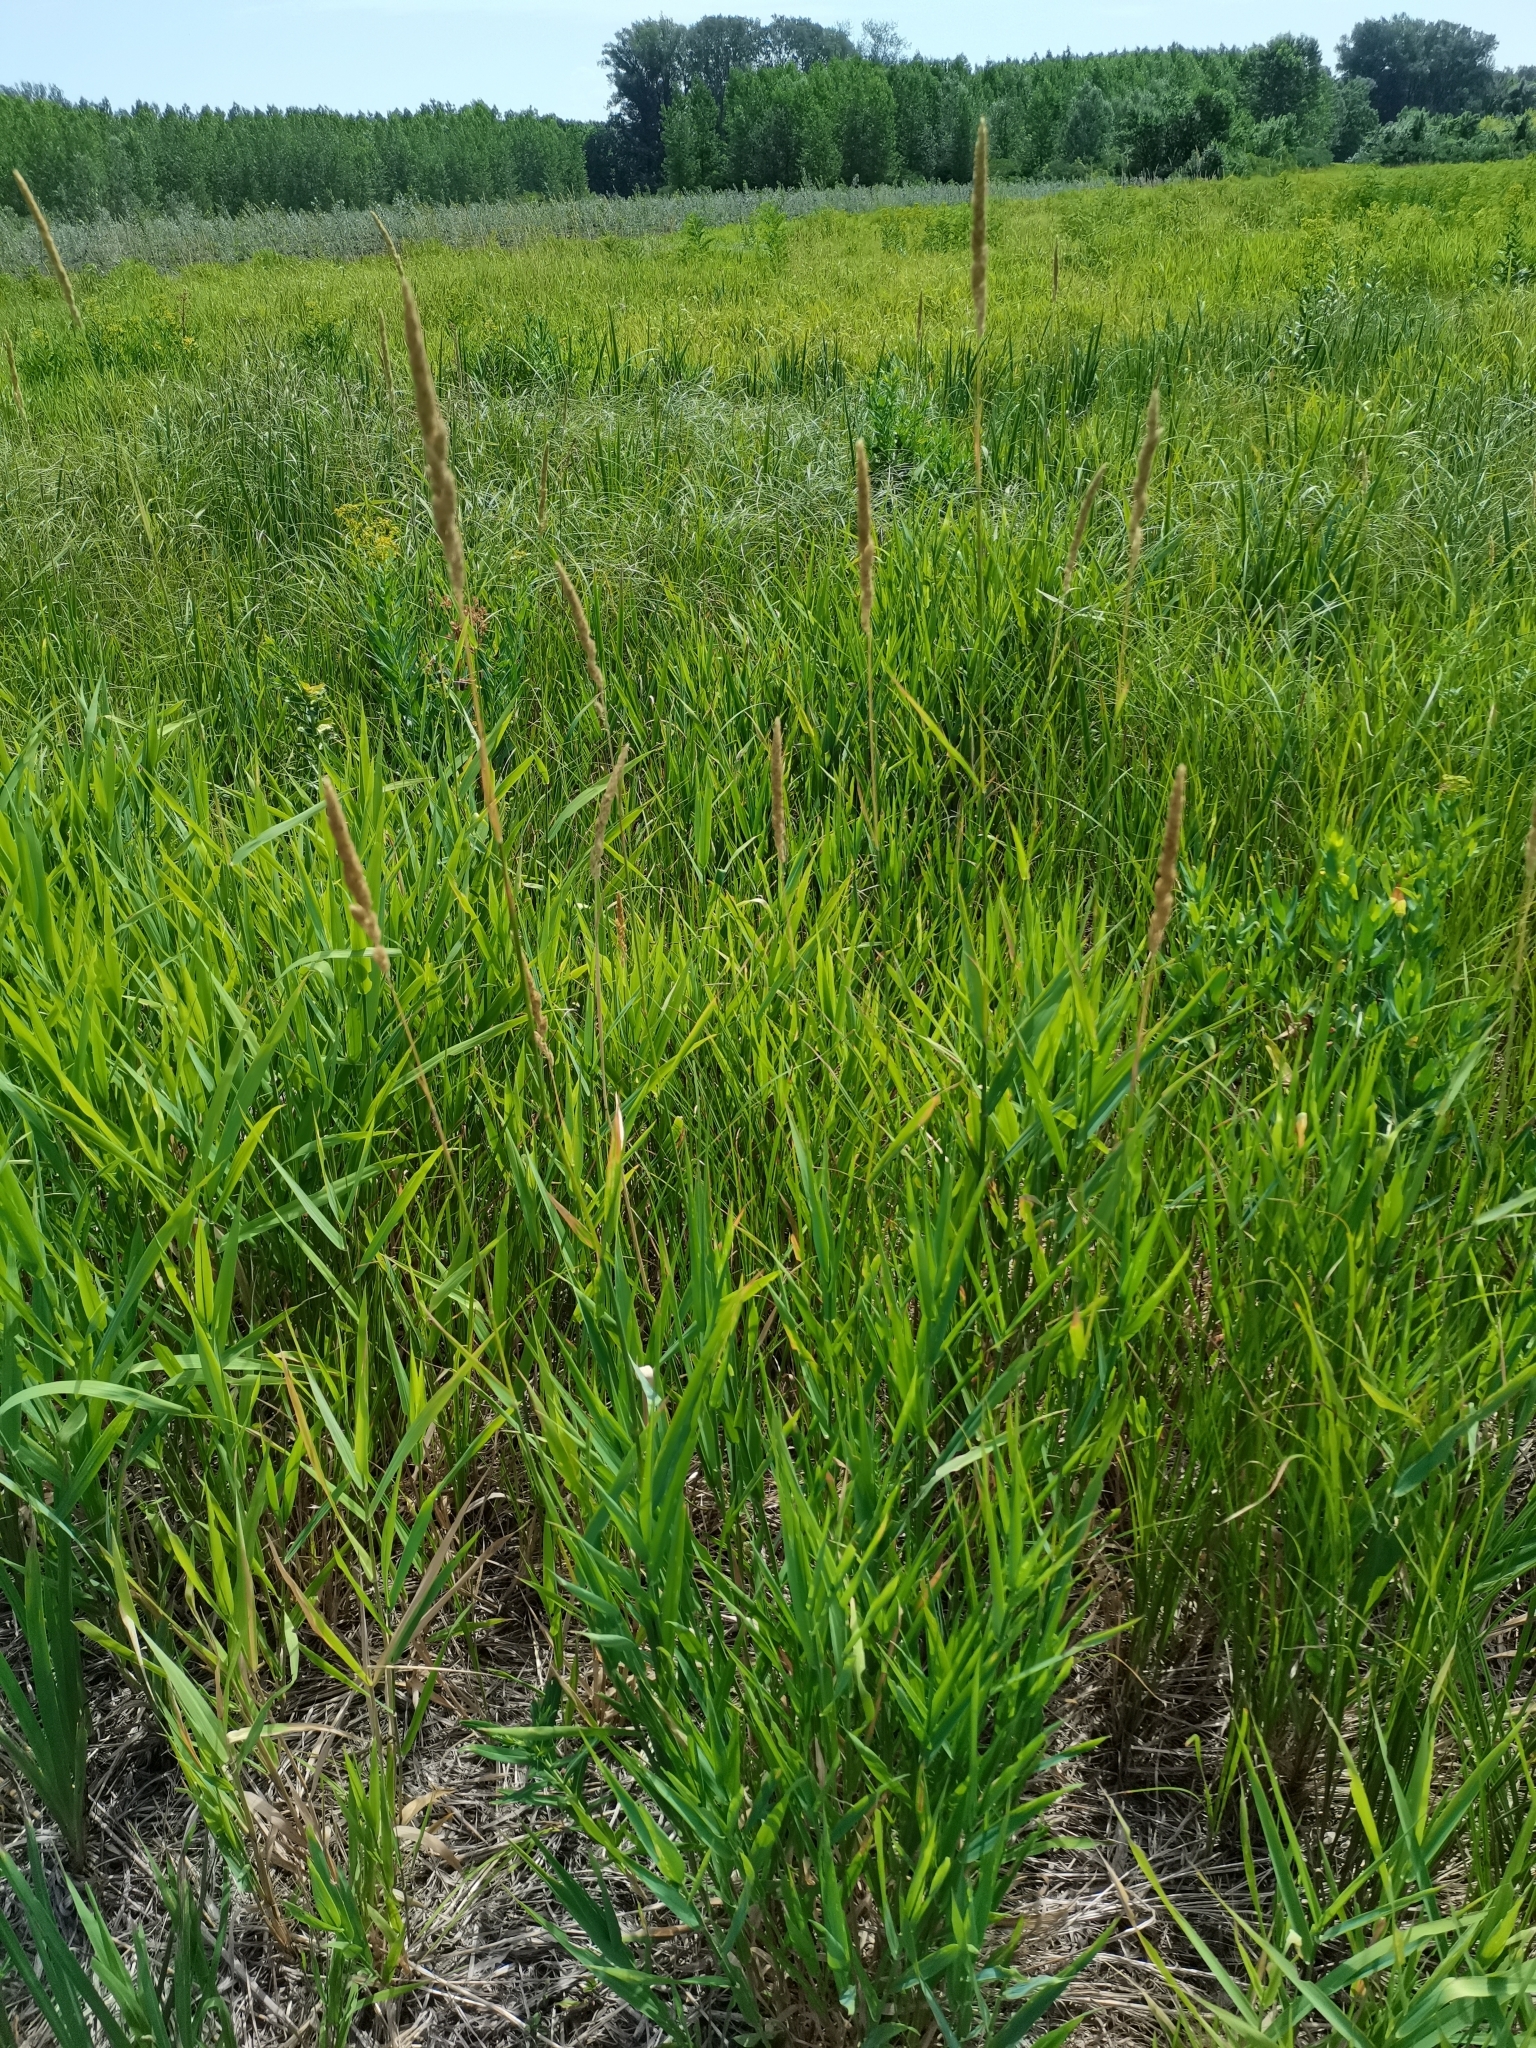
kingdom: Plantae
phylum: Tracheophyta
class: Liliopsida
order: Poales
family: Poaceae
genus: Phalaris
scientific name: Phalaris arundinacea
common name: Reed canary-grass
